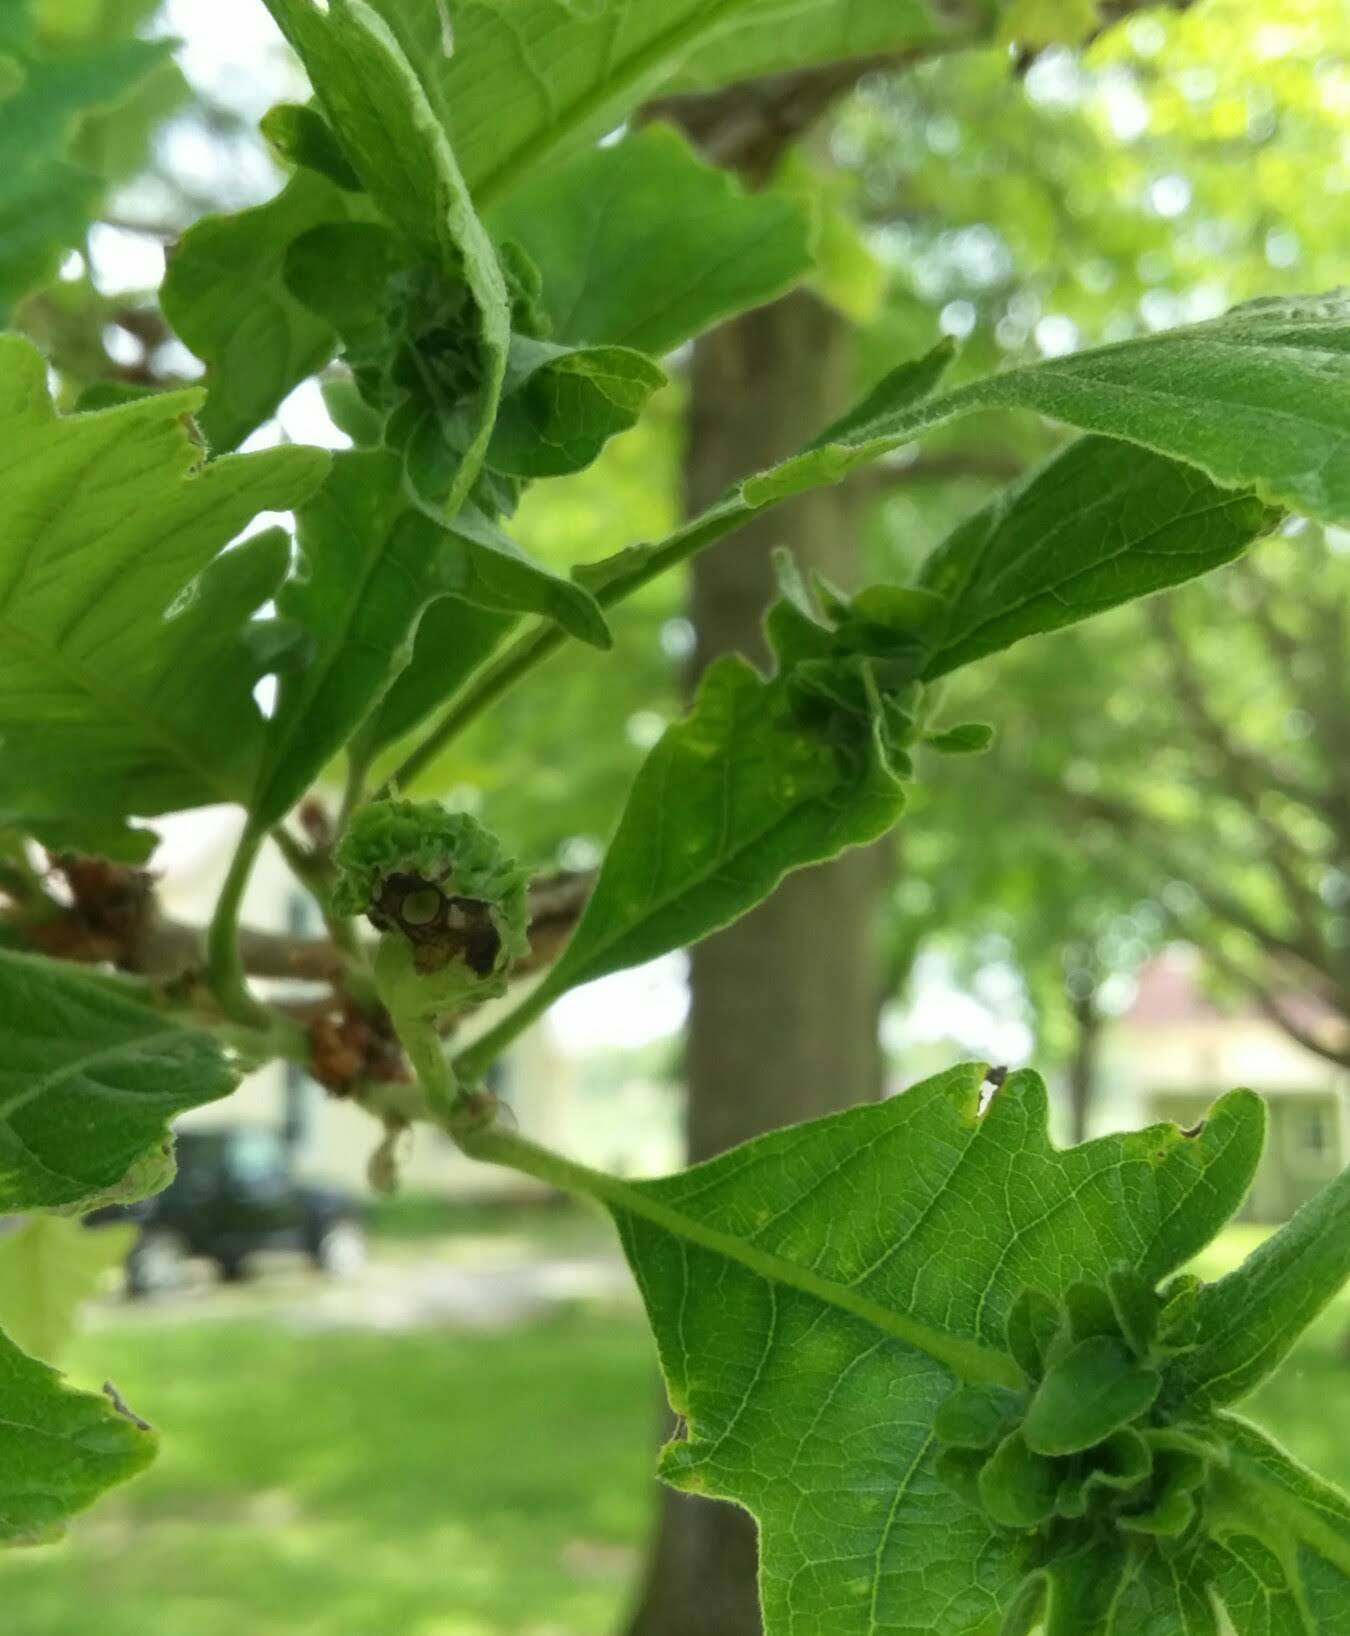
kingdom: Animalia
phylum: Arthropoda
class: Insecta
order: Hymenoptera
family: Cynipidae
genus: Andricus
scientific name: Andricus
